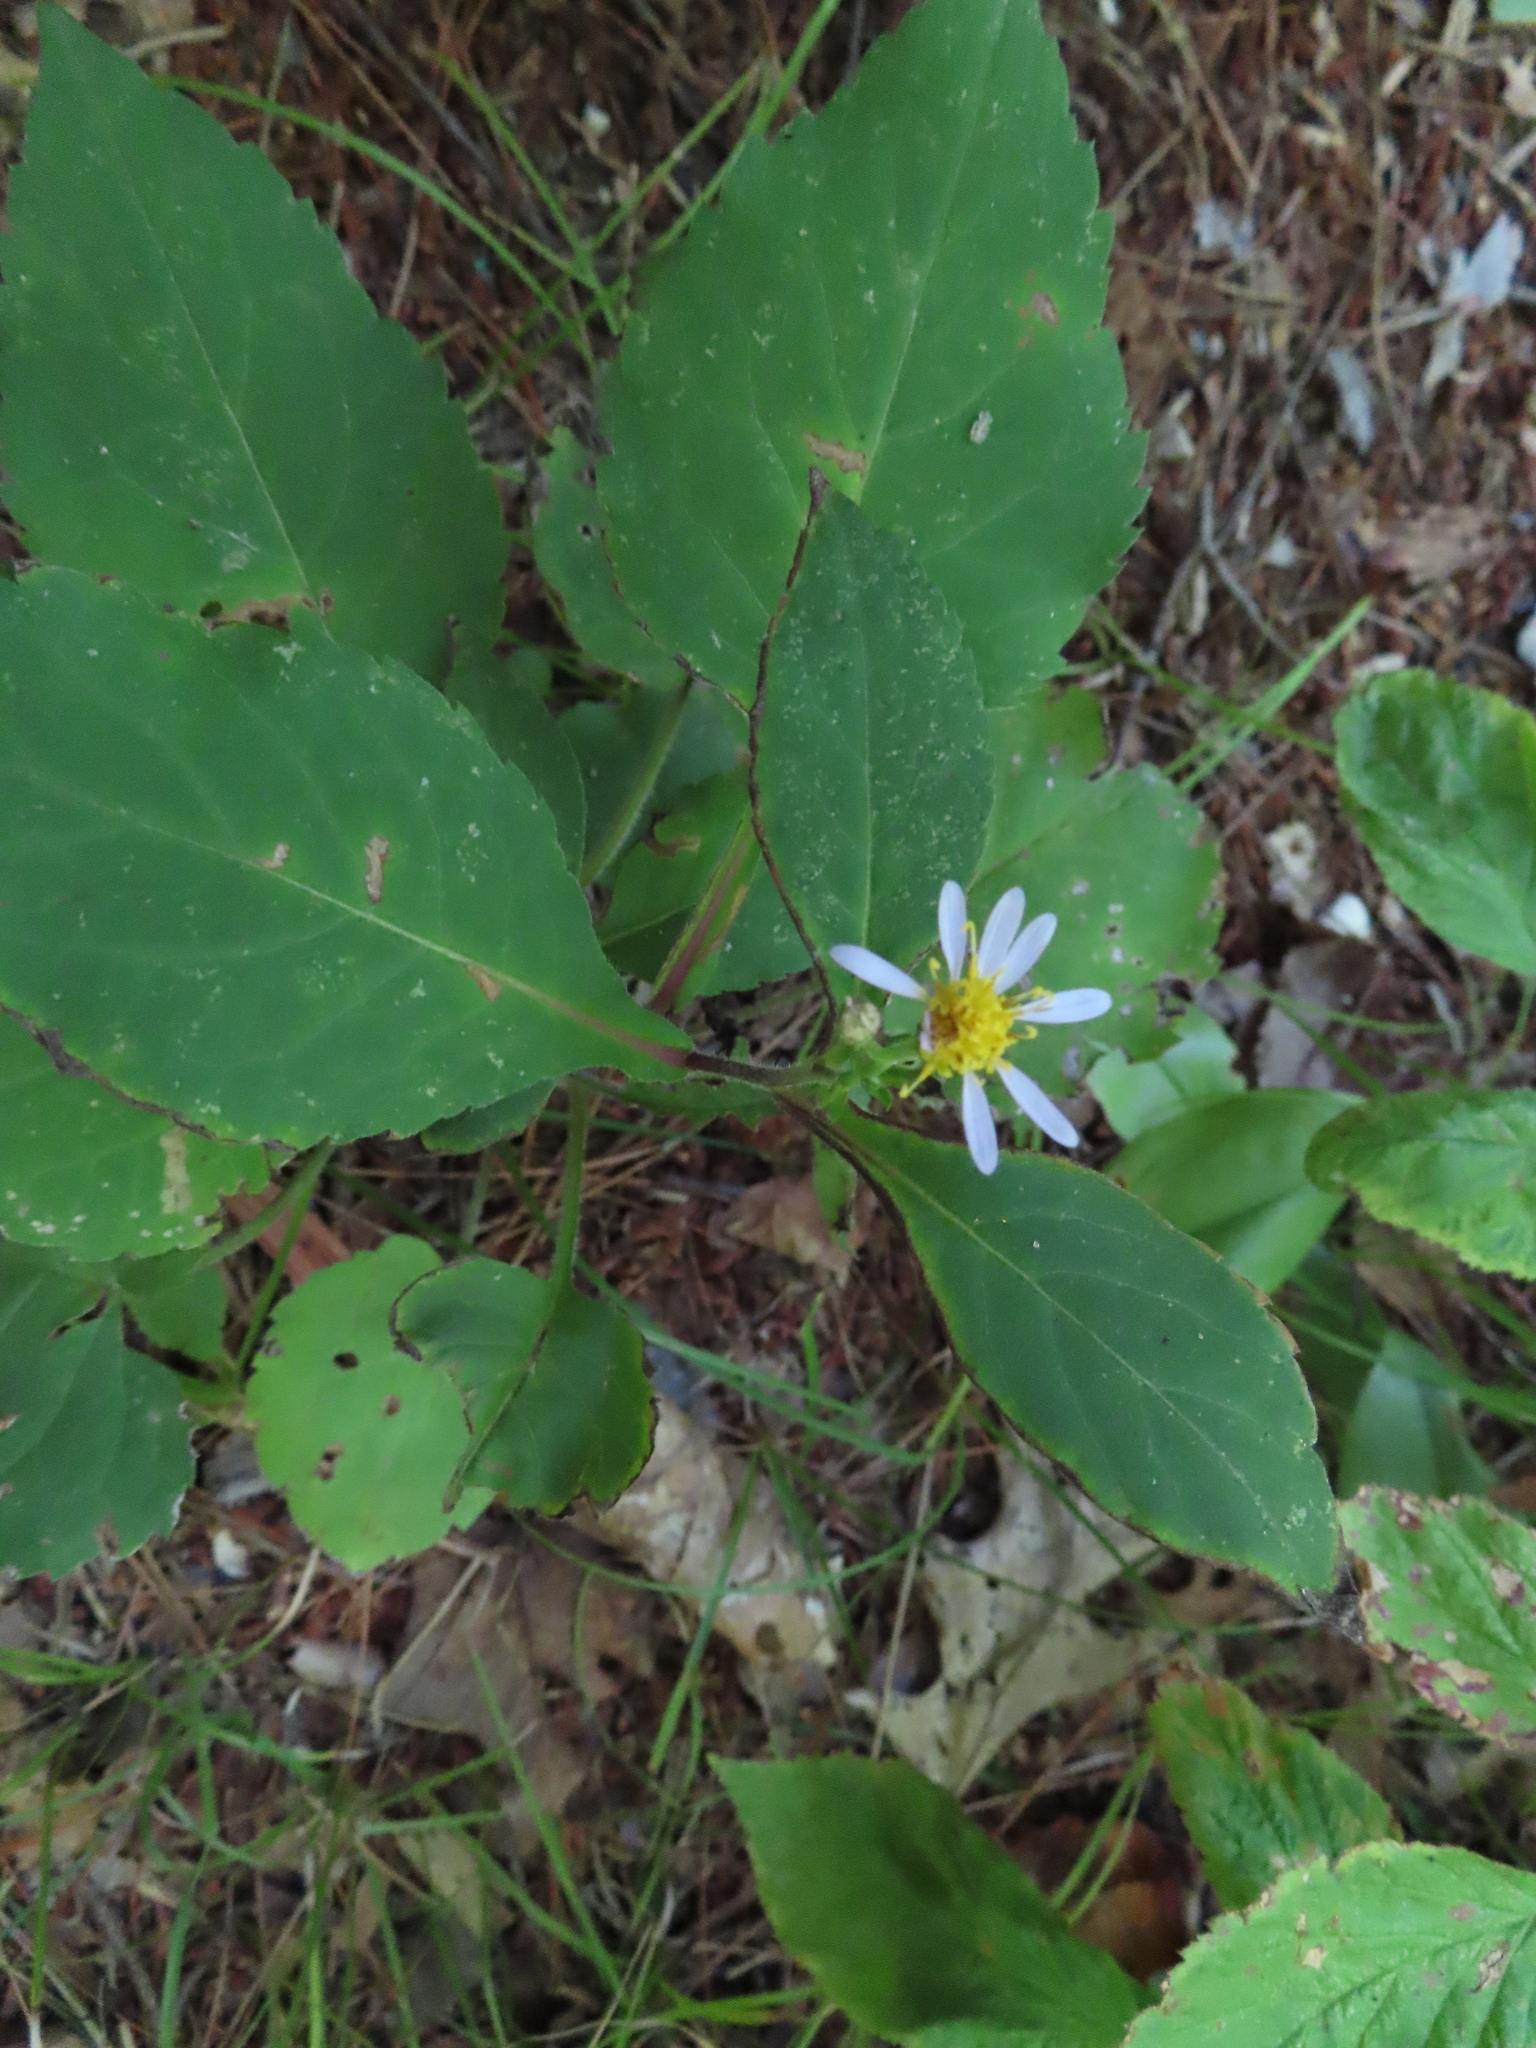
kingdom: Plantae
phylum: Tracheophyta
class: Magnoliopsida
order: Asterales
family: Asteraceae
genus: Eurybia
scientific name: Eurybia macrophylla
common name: Big-leaved aster
